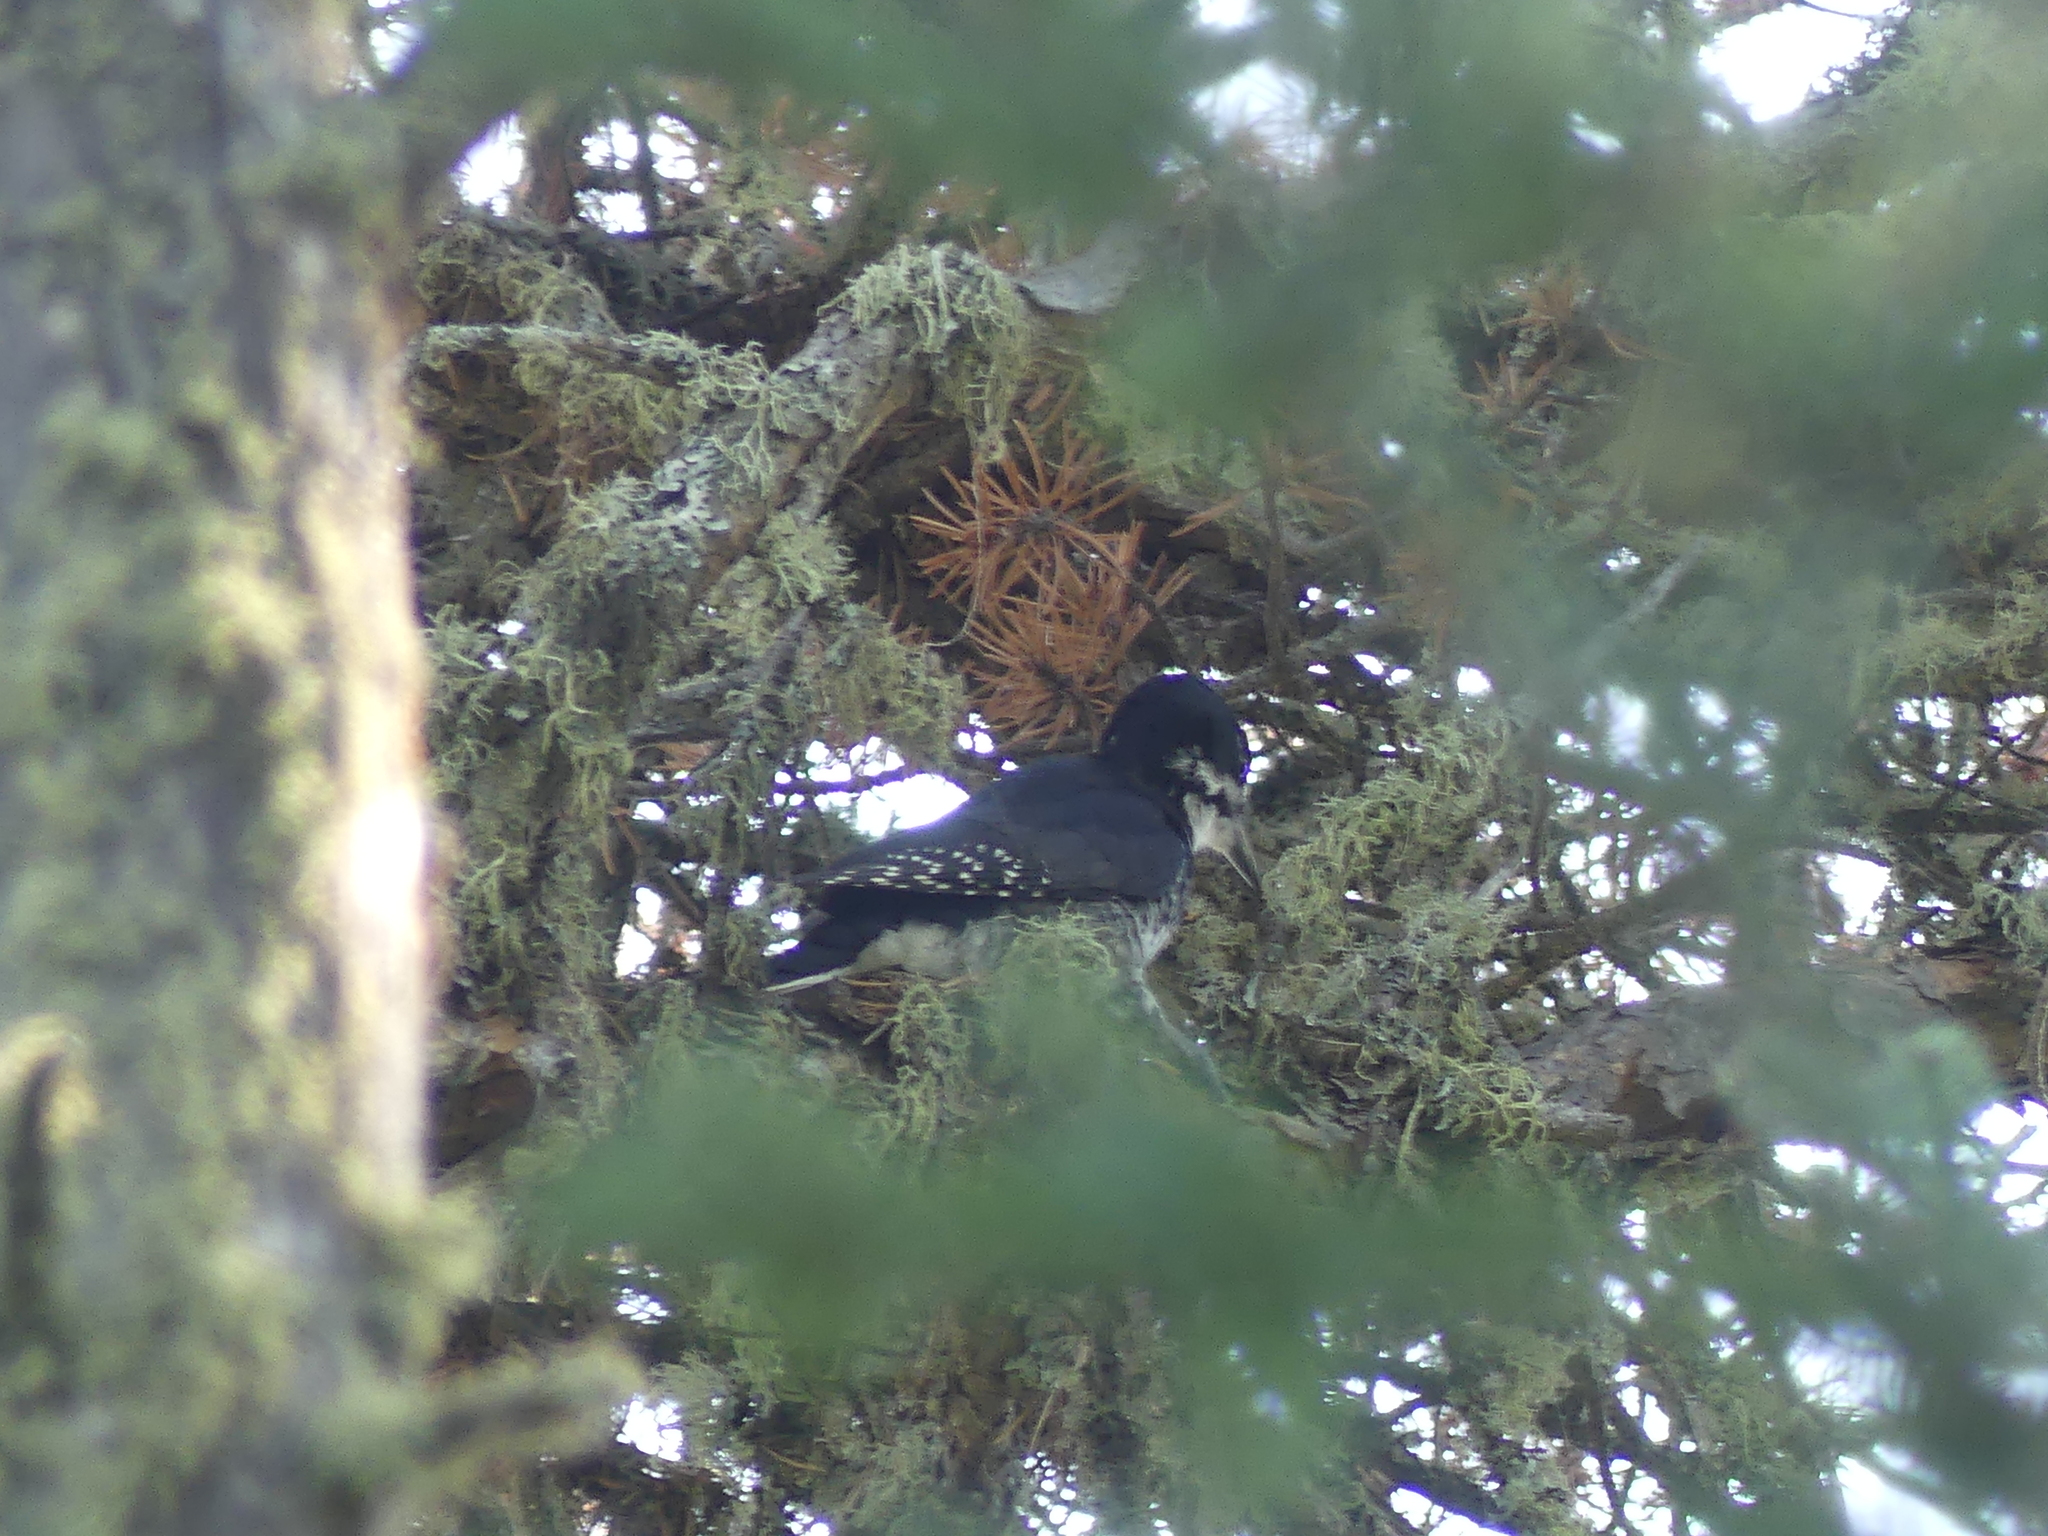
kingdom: Animalia
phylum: Chordata
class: Aves
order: Piciformes
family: Picidae
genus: Picoides
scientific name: Picoides arcticus
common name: Black-backed woodpecker
